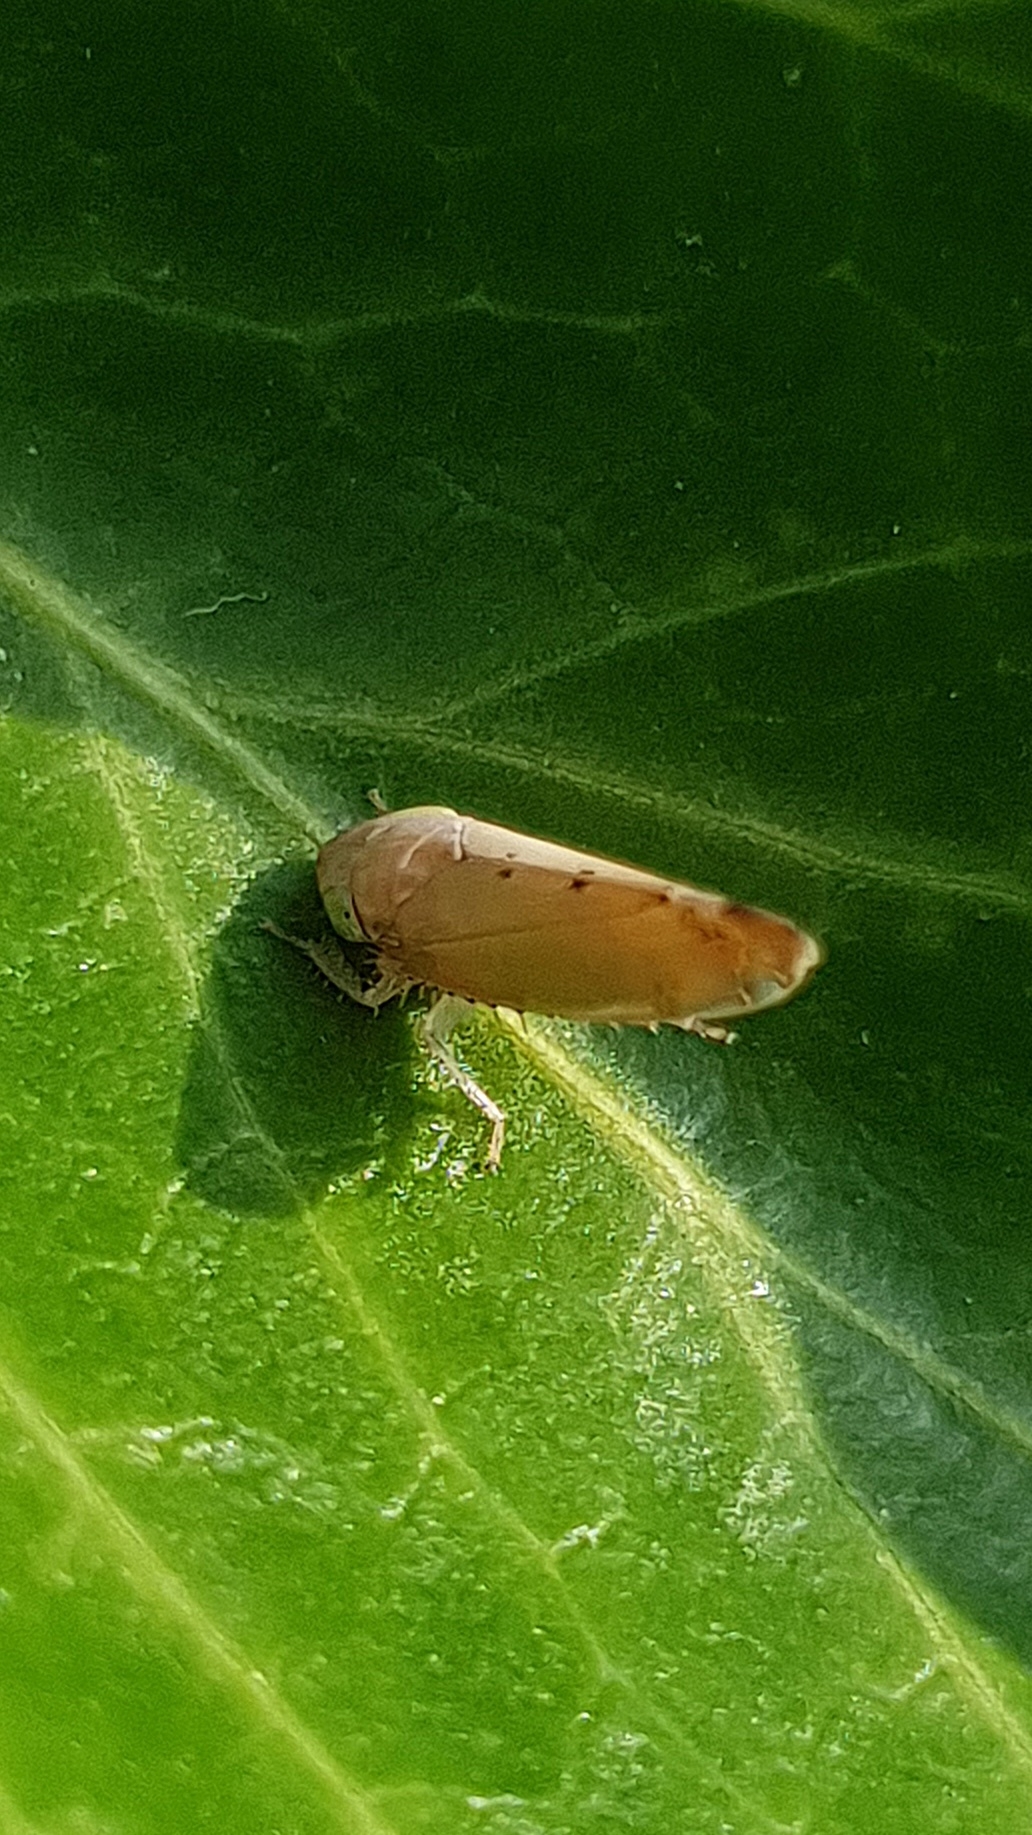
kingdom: Animalia
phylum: Arthropoda
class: Insecta
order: Hemiptera
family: Cicadellidae
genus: Synophropsis
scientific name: Synophropsis lauri
